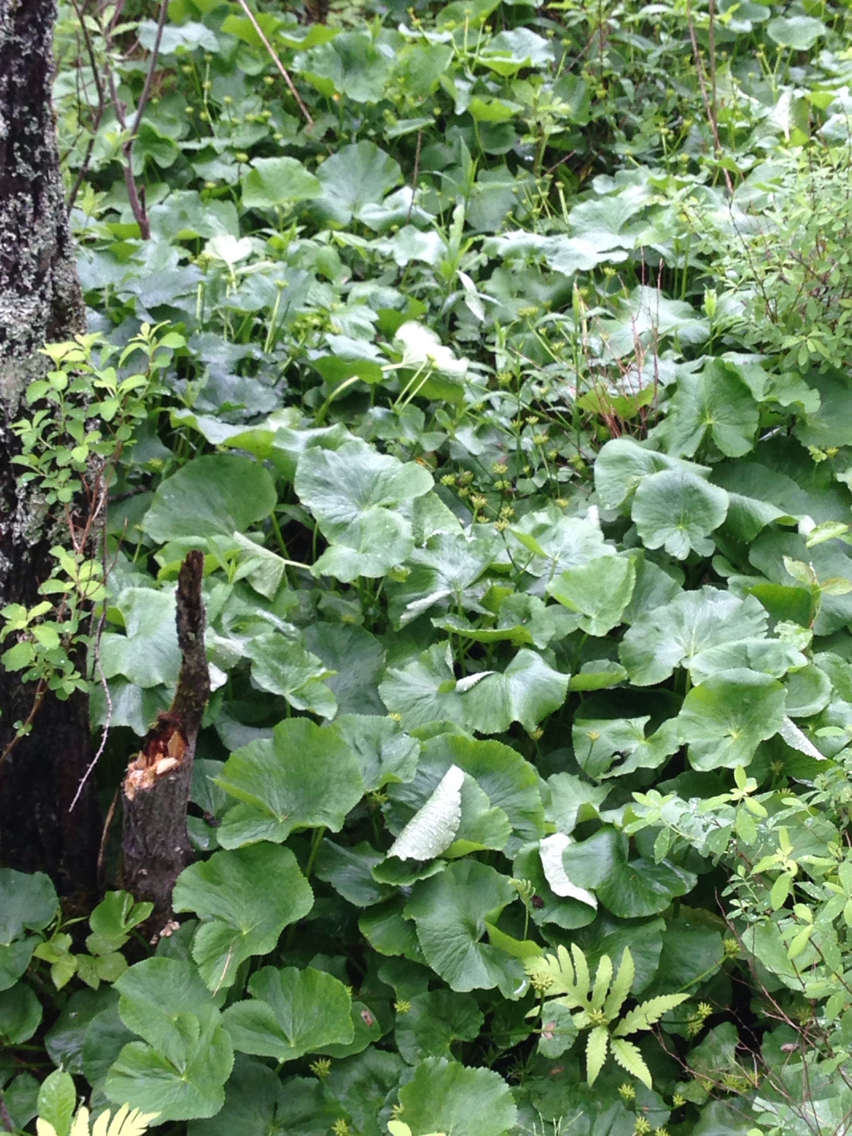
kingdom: Plantae
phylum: Tracheophyta
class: Magnoliopsida
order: Ranunculales
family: Ranunculaceae
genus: Caltha
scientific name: Caltha palustris
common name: Marsh marigold
